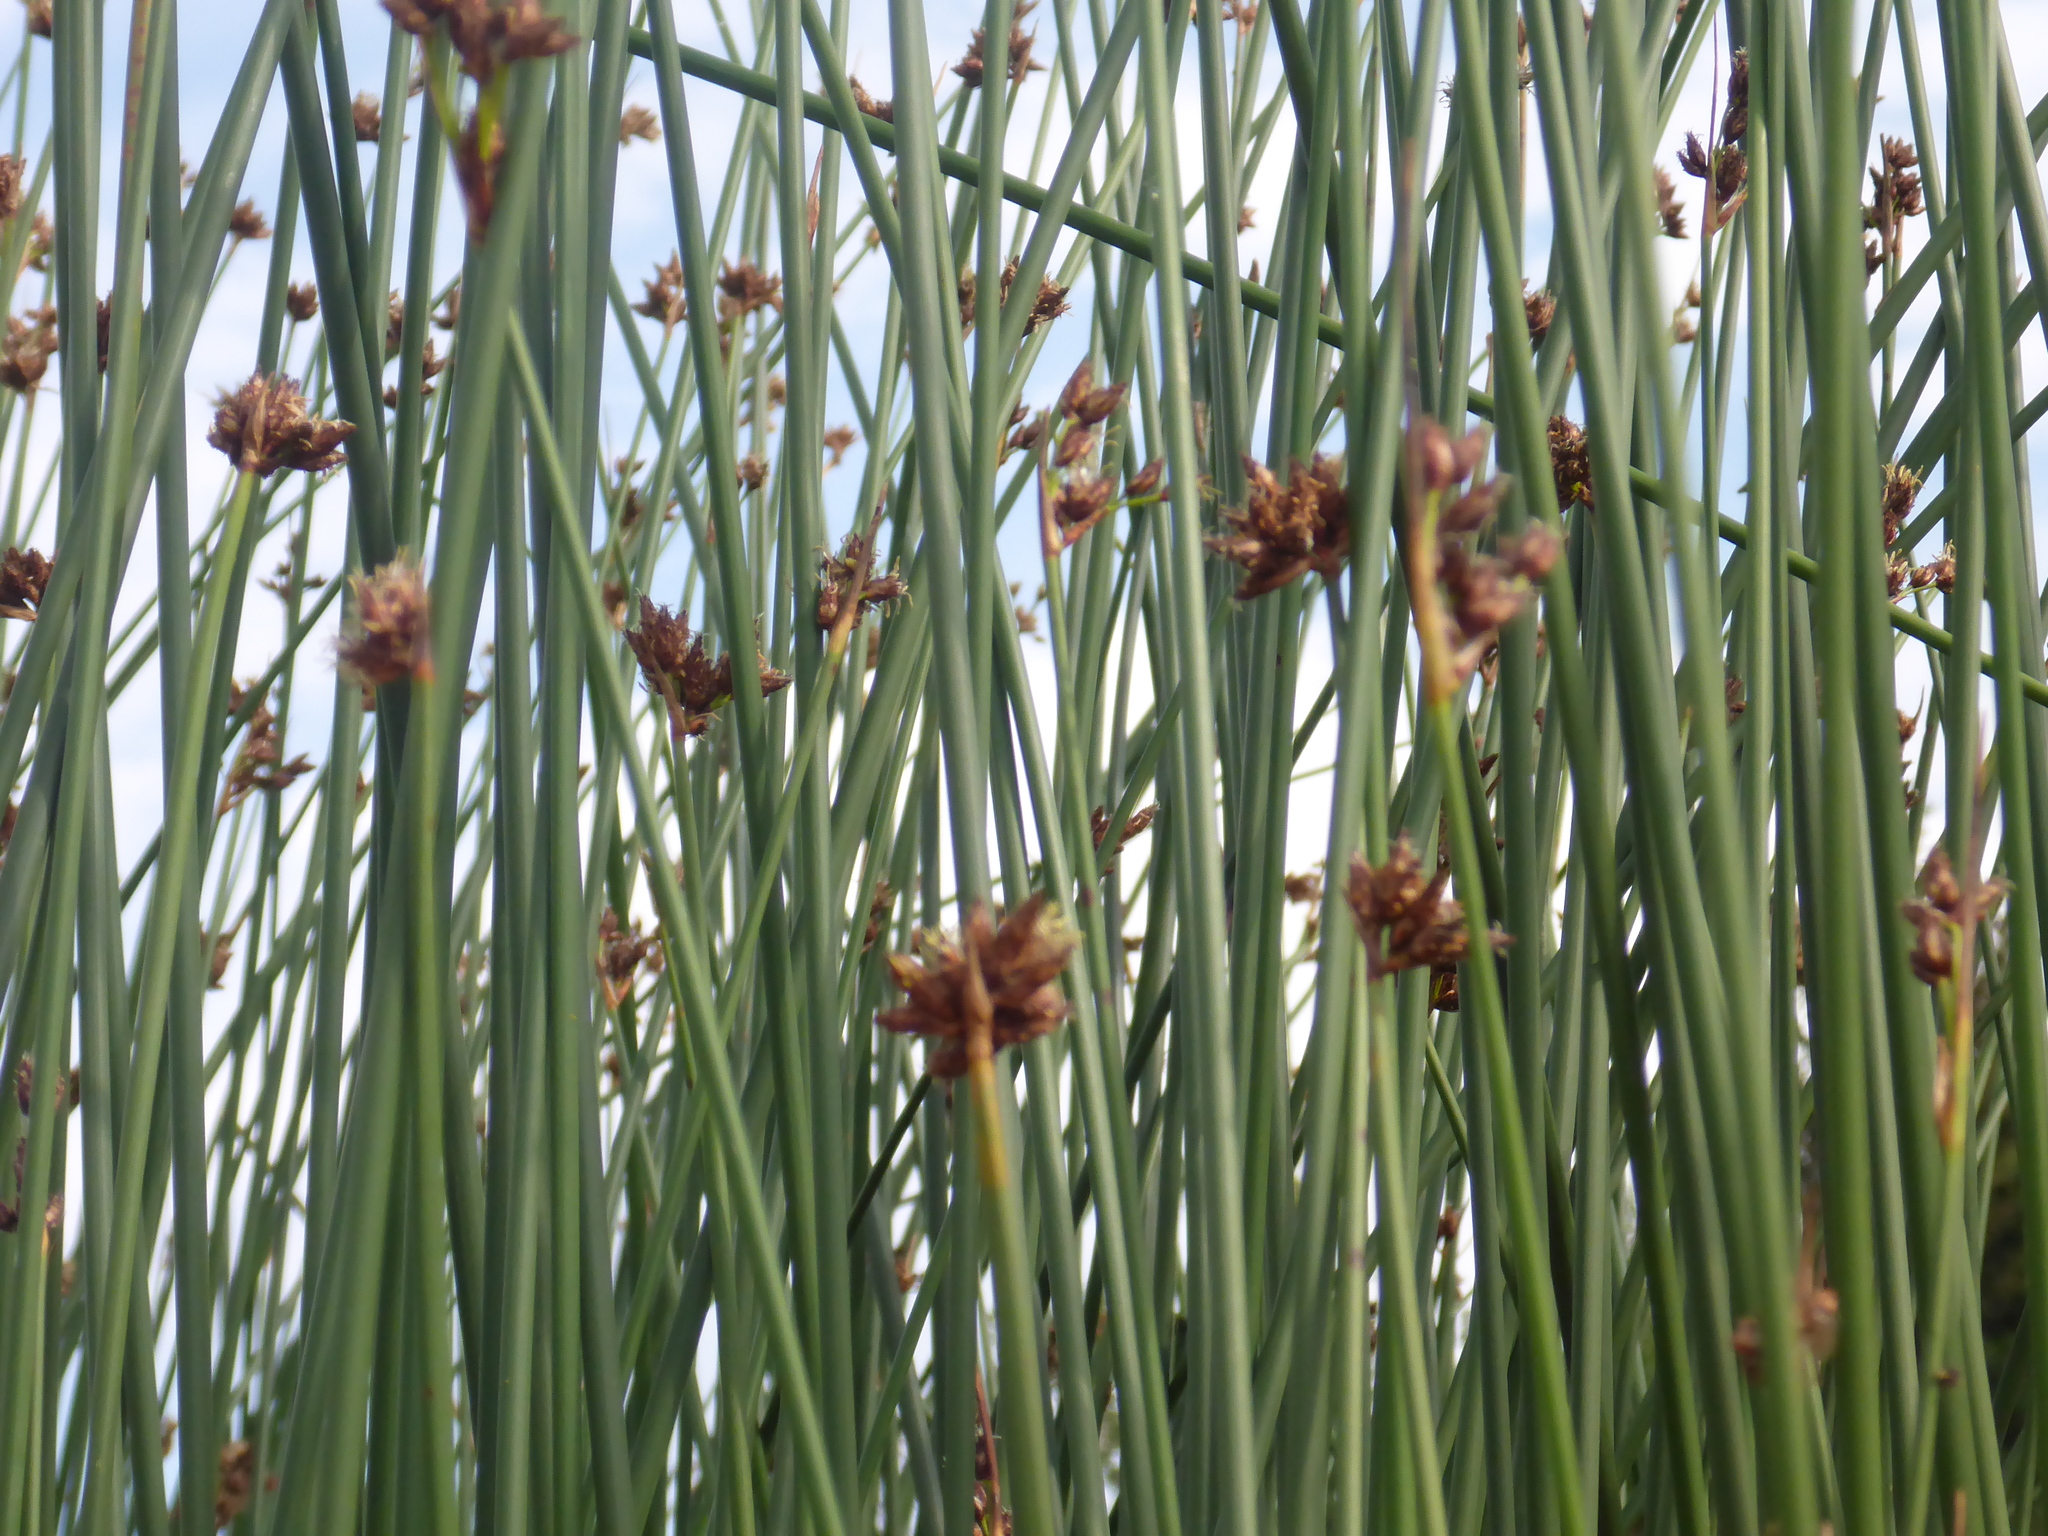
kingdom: Plantae
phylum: Tracheophyta
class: Liliopsida
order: Poales
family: Cyperaceae
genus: Schoenoplectus
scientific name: Schoenoplectus acutus
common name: Hardstem bulrush
